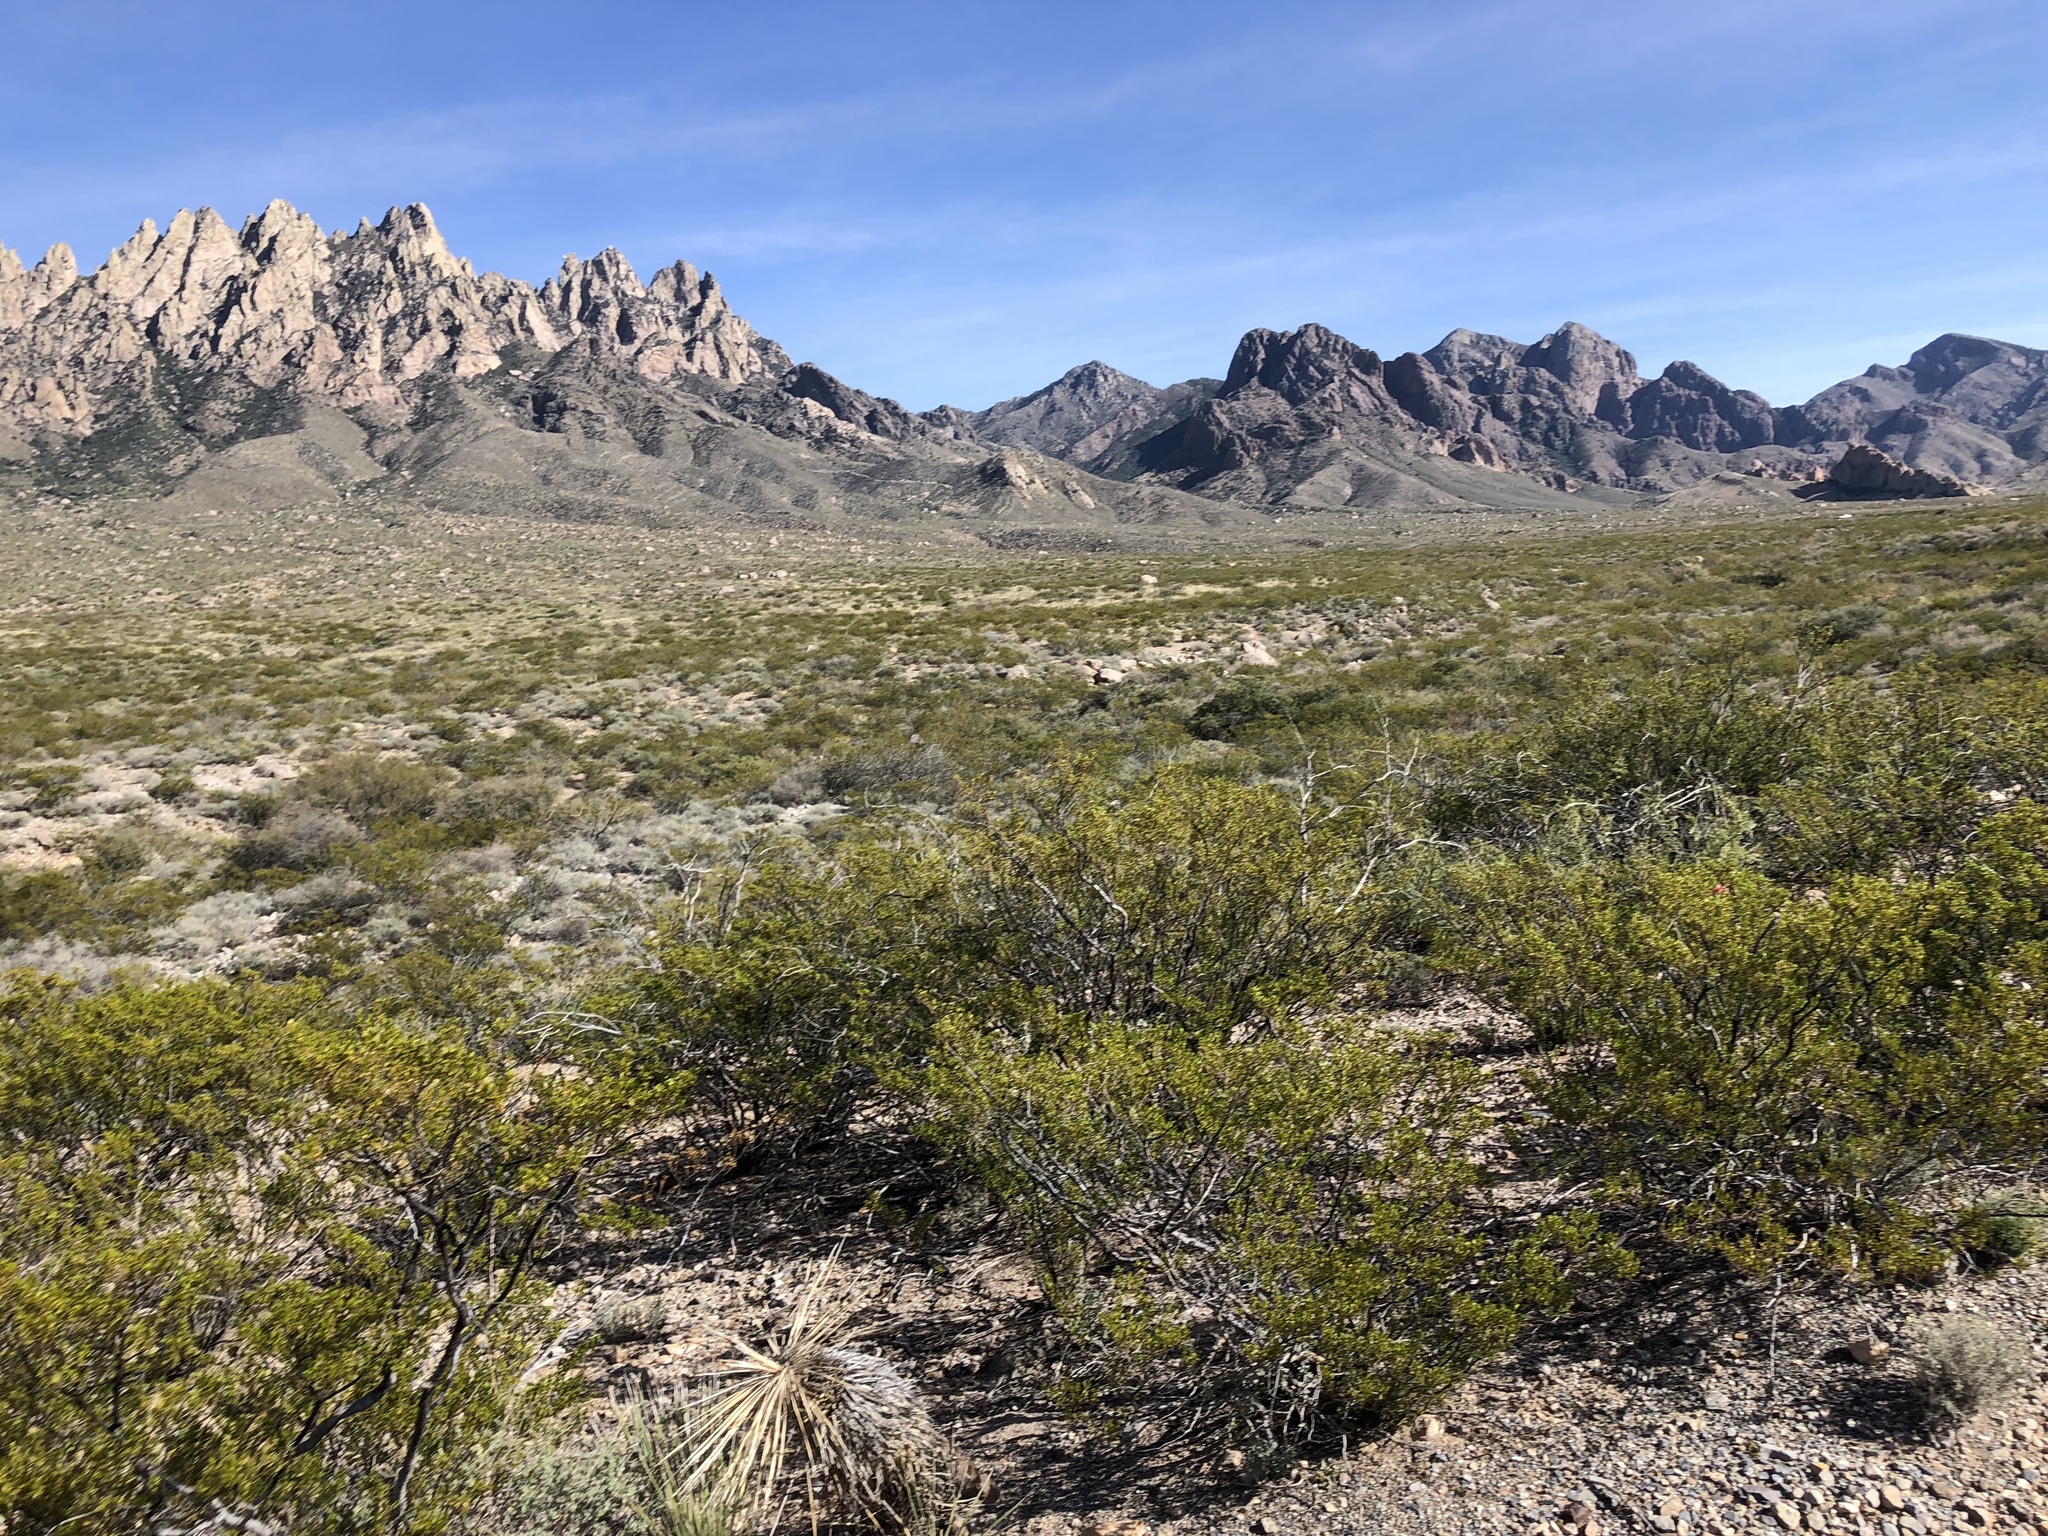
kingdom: Plantae
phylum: Tracheophyta
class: Magnoliopsida
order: Zygophyllales
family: Zygophyllaceae
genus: Larrea
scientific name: Larrea tridentata
